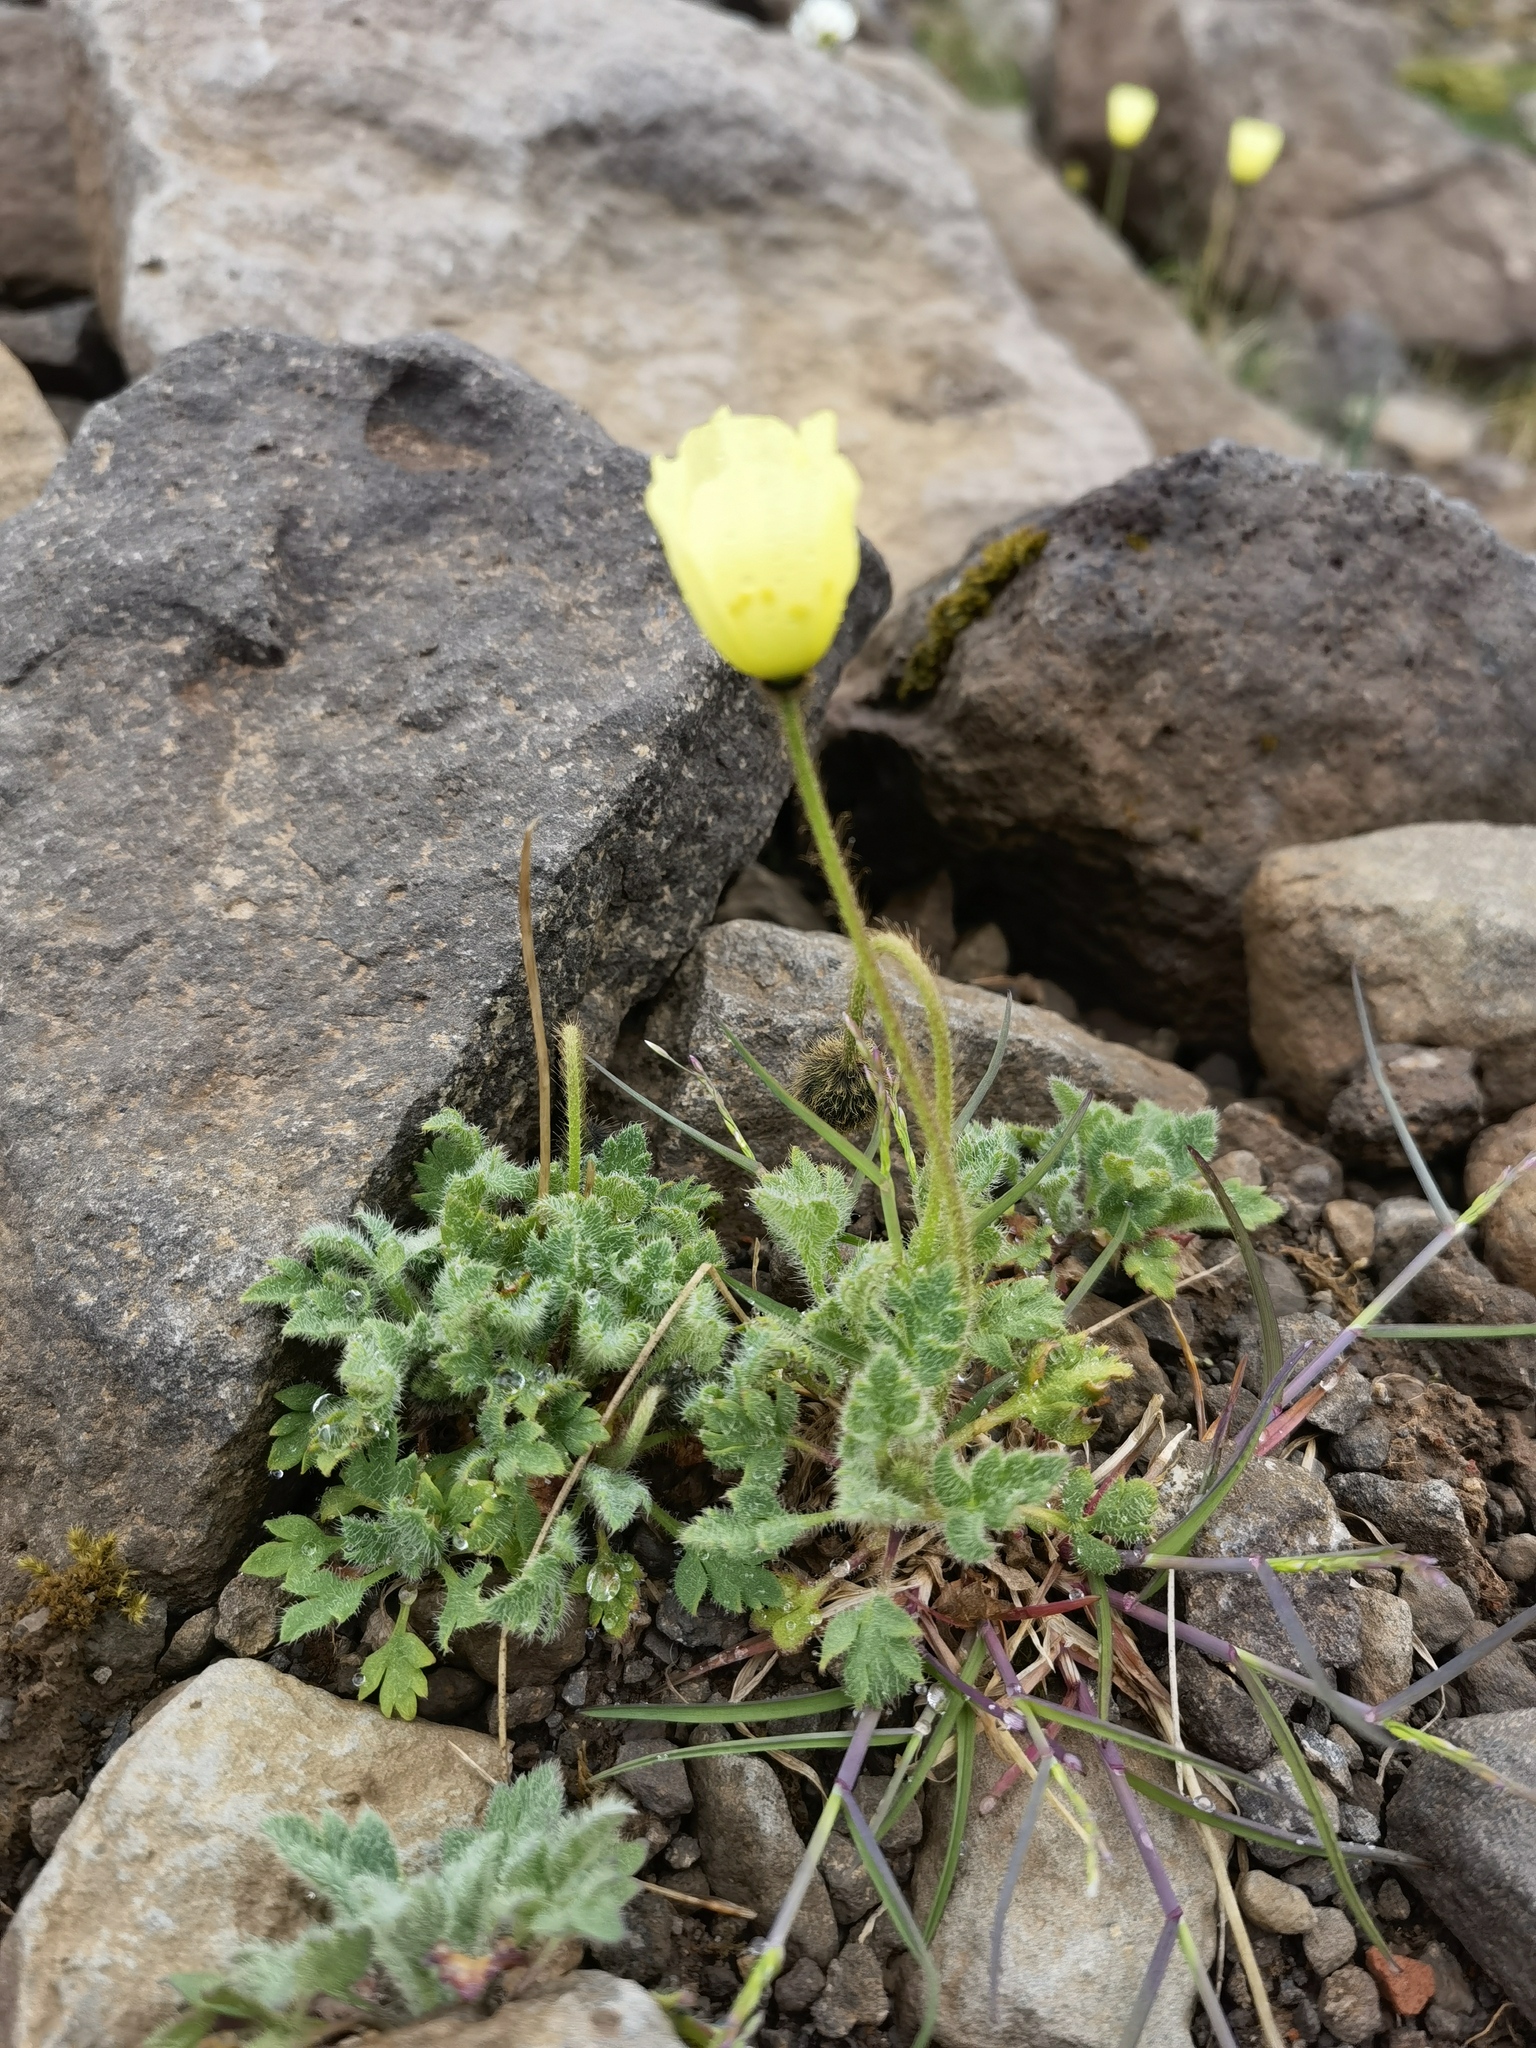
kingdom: Plantae
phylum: Tracheophyta
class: Magnoliopsida
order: Ranunculales
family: Papaveraceae
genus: Papaver
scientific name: Papaver radicatum
